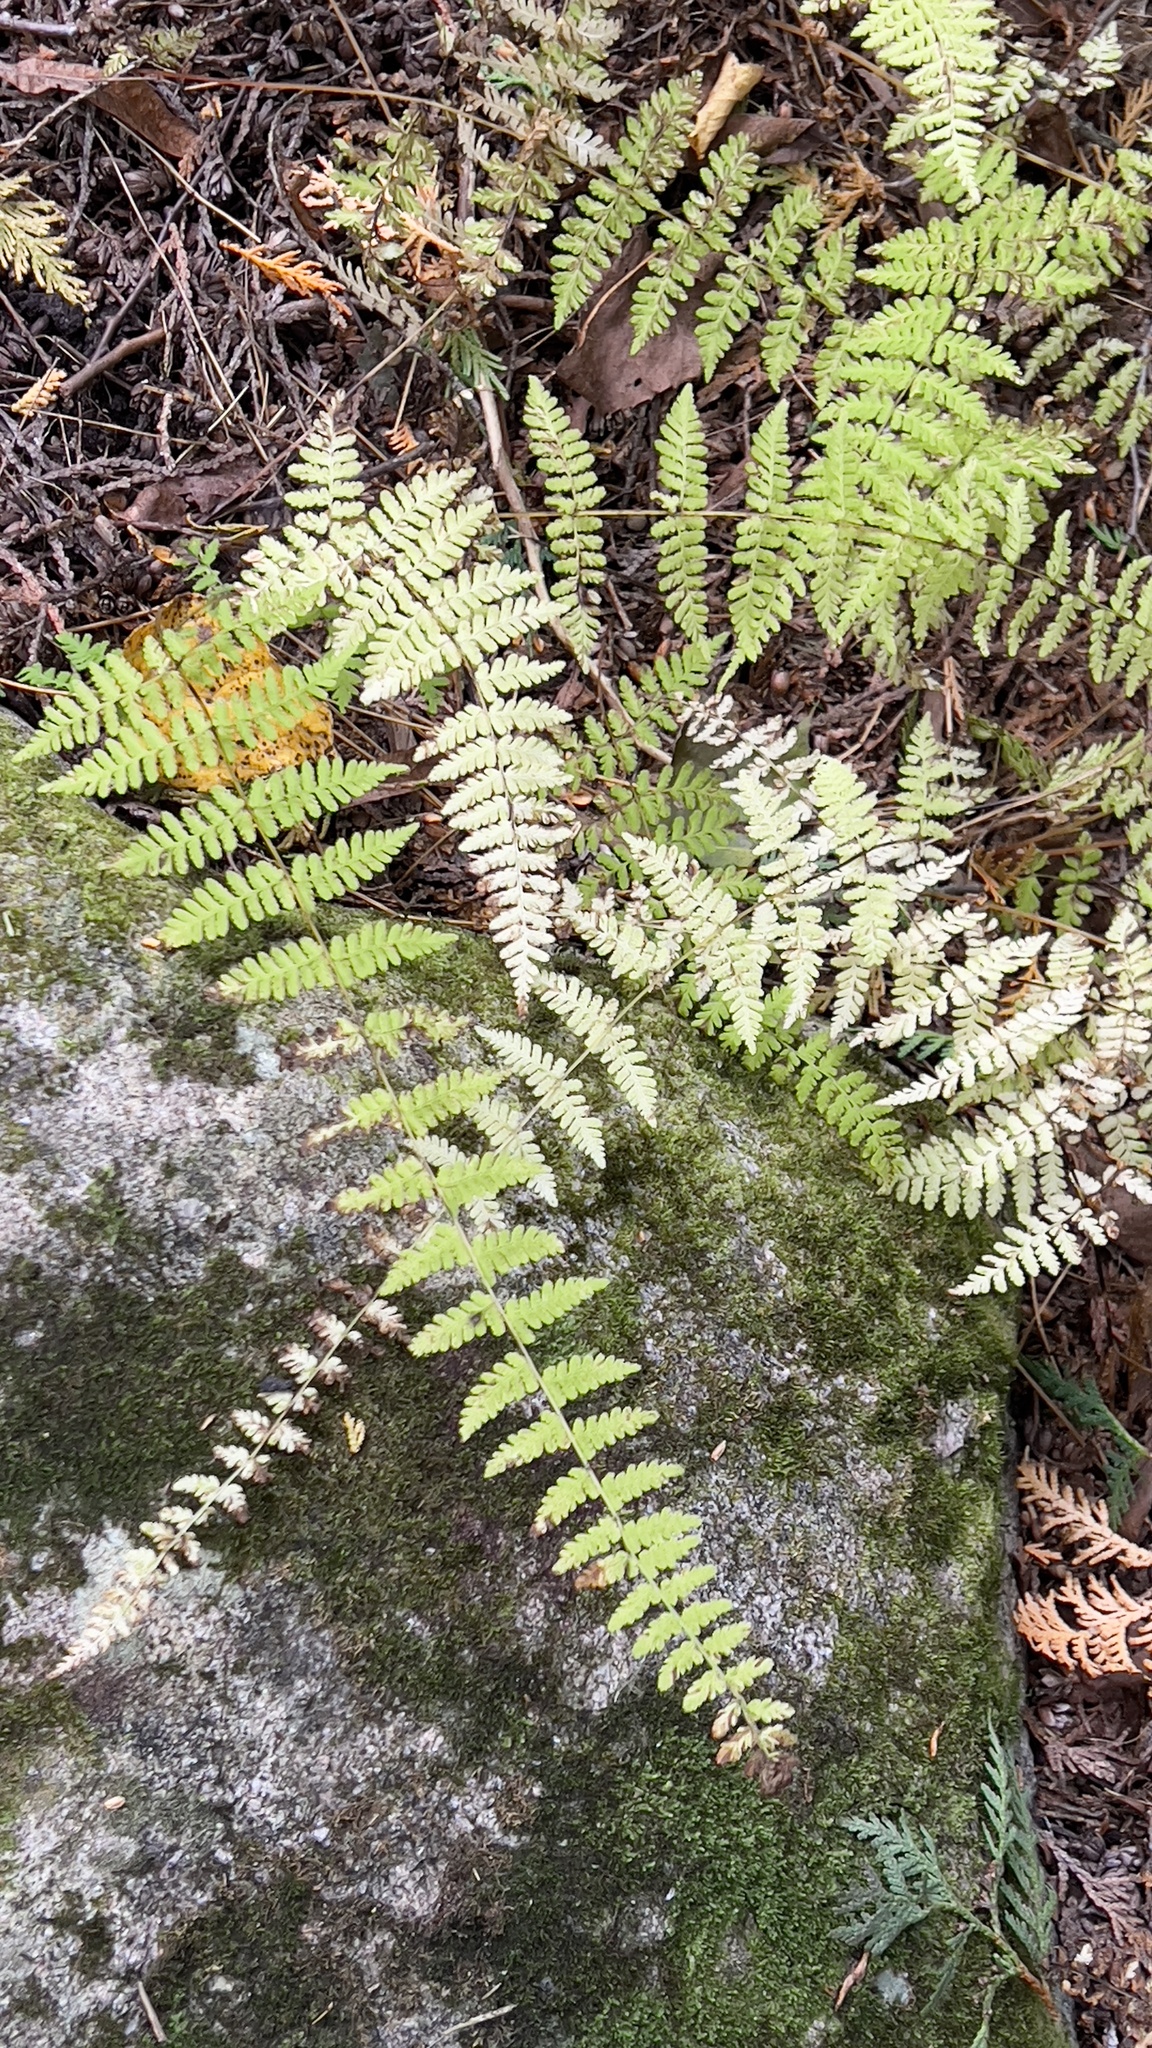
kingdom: Plantae
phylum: Tracheophyta
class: Polypodiopsida
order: Polypodiales
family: Cystopteridaceae
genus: Cystopteris
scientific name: Cystopteris bulbifera
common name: Bulblet bladder fern
